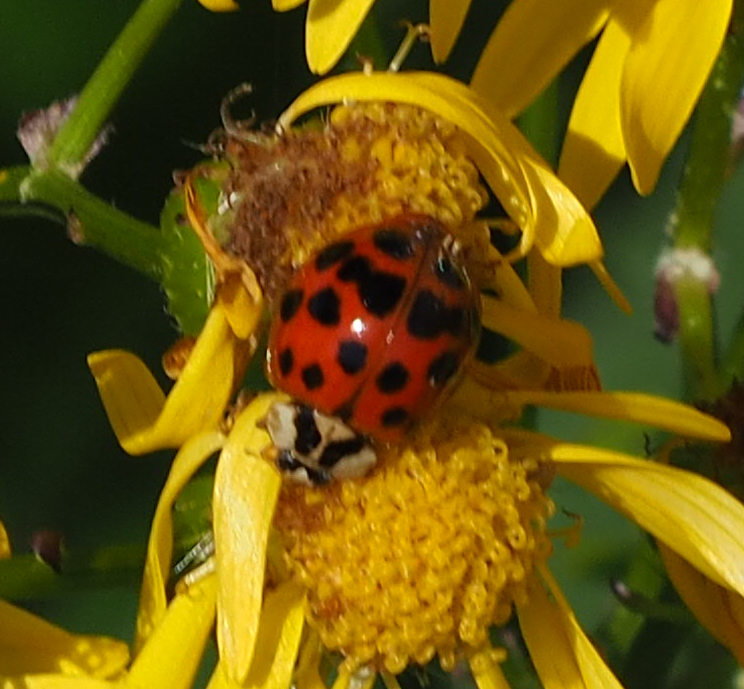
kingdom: Animalia
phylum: Arthropoda
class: Insecta
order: Coleoptera
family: Coccinellidae
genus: Harmonia
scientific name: Harmonia axyridis
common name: Harlequin ladybird
